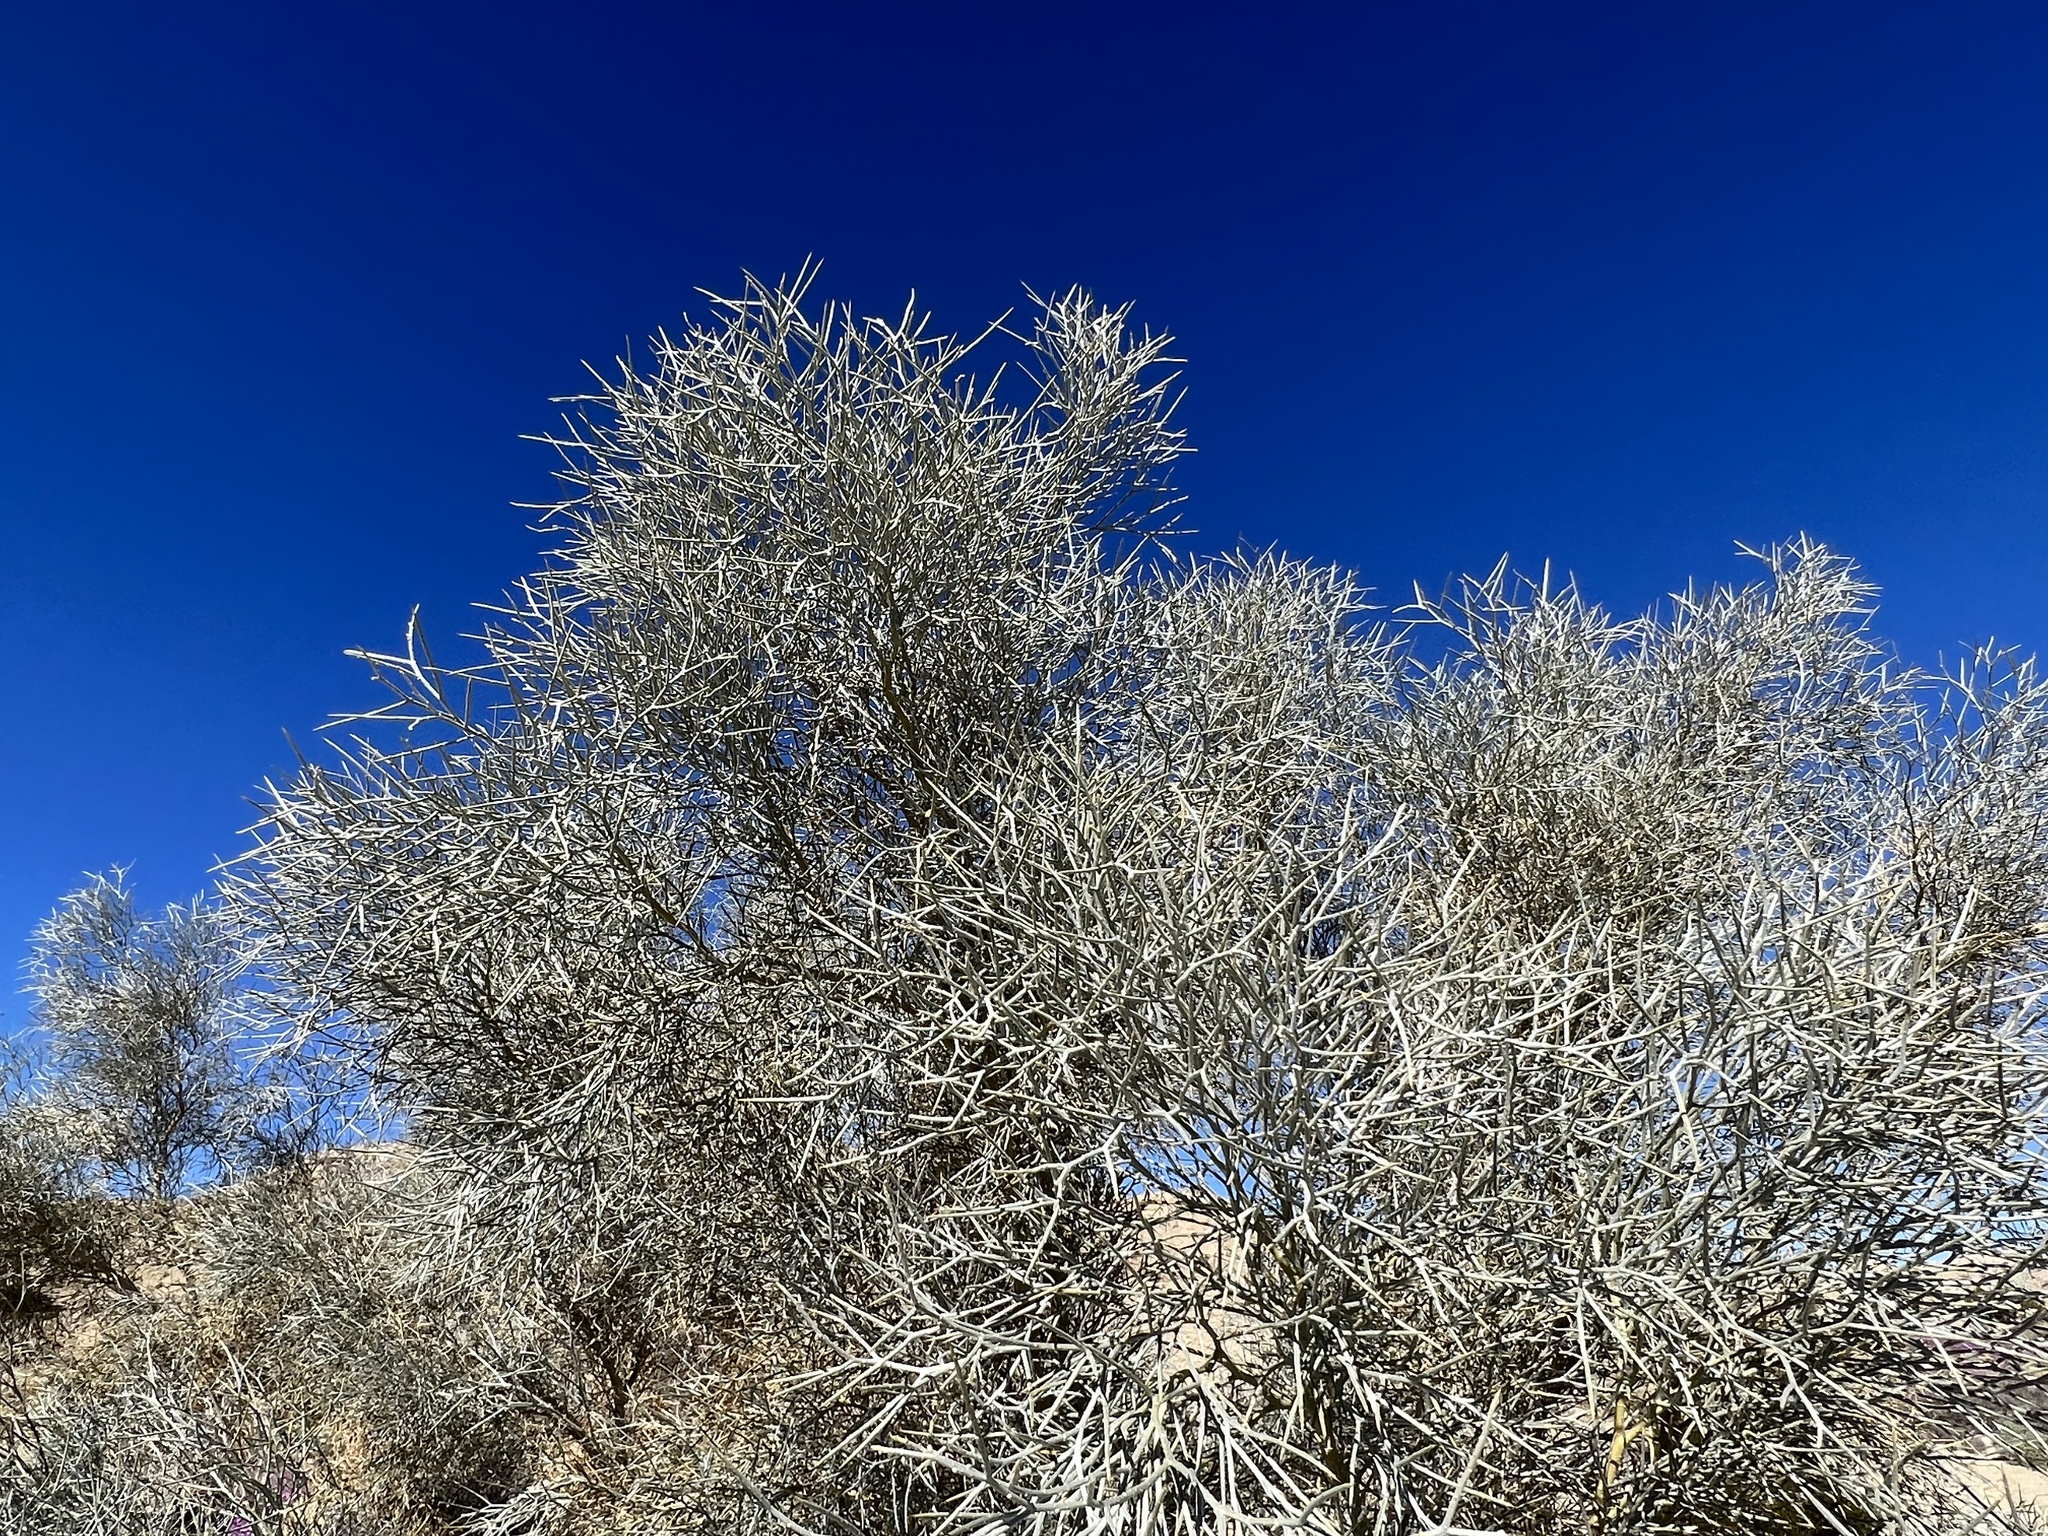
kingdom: Plantae
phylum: Tracheophyta
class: Magnoliopsida
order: Fabales
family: Fabaceae
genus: Psorothamnus
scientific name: Psorothamnus spinosus
